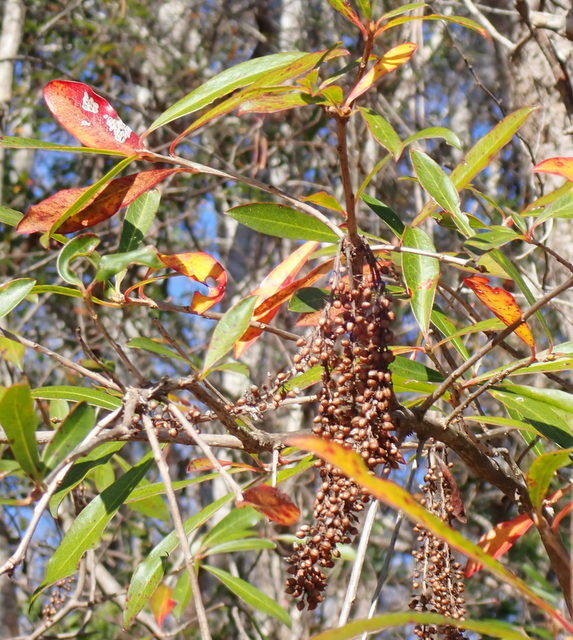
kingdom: Plantae
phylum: Tracheophyta
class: Magnoliopsida
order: Ericales
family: Cyrillaceae
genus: Cyrilla
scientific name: Cyrilla racemiflora
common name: Black titi
